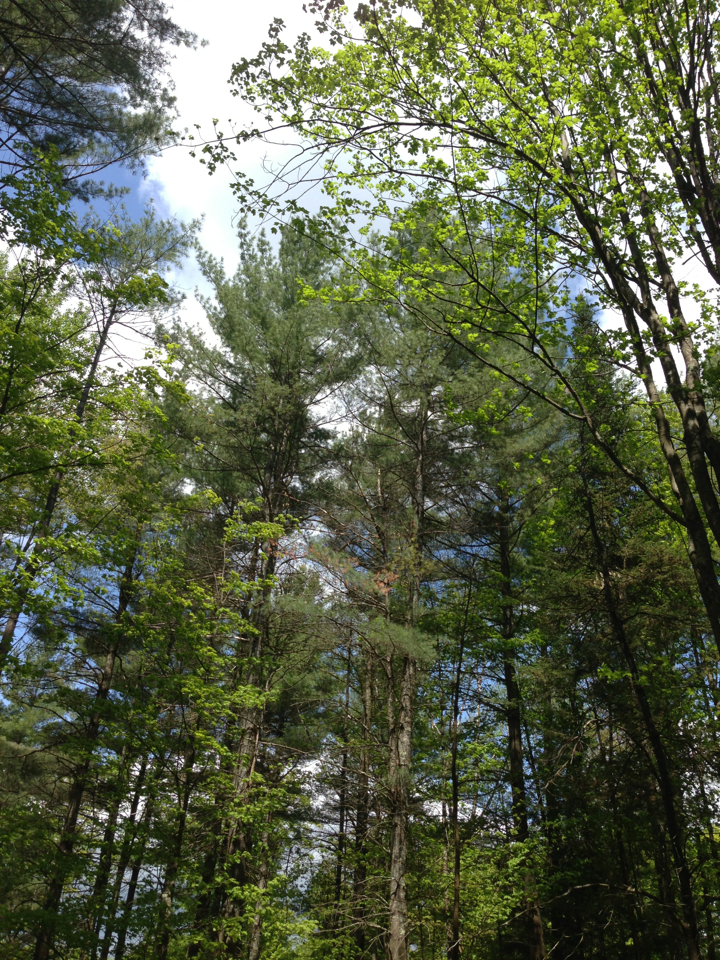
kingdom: Plantae
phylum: Tracheophyta
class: Pinopsida
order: Pinales
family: Pinaceae
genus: Pinus
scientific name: Pinus strobus
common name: Weymouth pine
